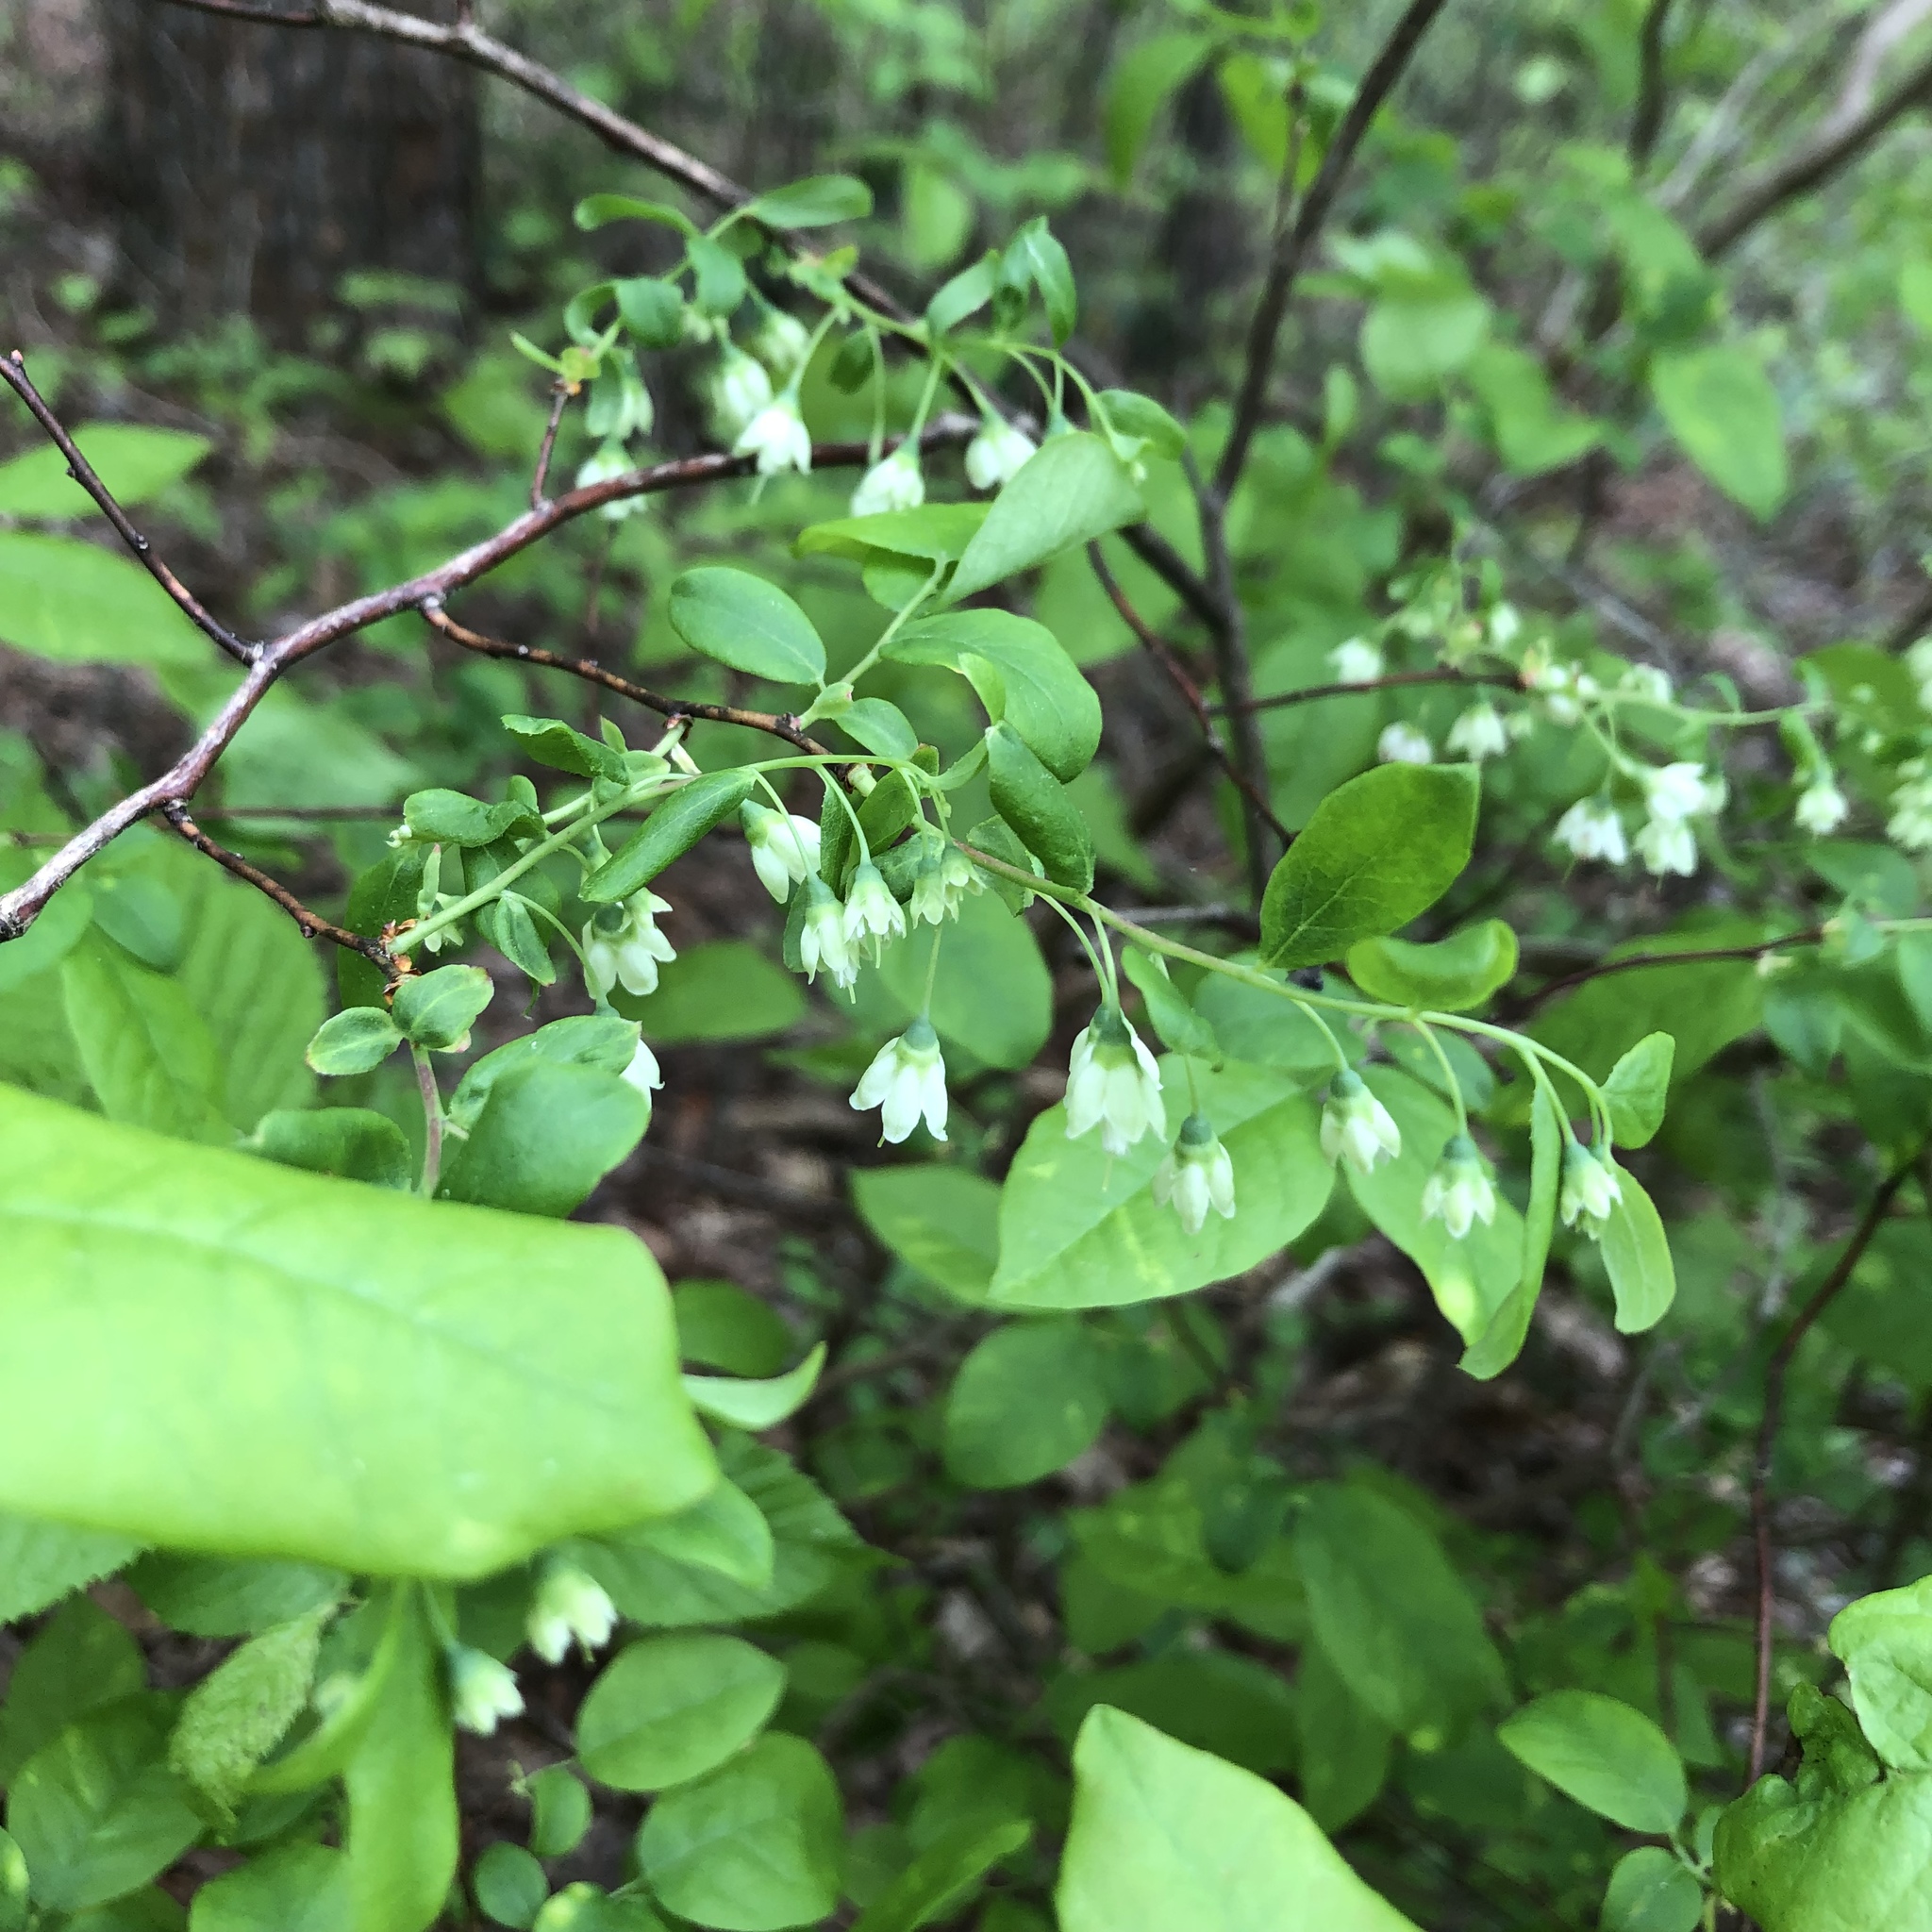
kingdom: Plantae
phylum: Tracheophyta
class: Magnoliopsida
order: Ericales
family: Ericaceae
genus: Vaccinium
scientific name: Vaccinium stamineum
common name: Deerberry
